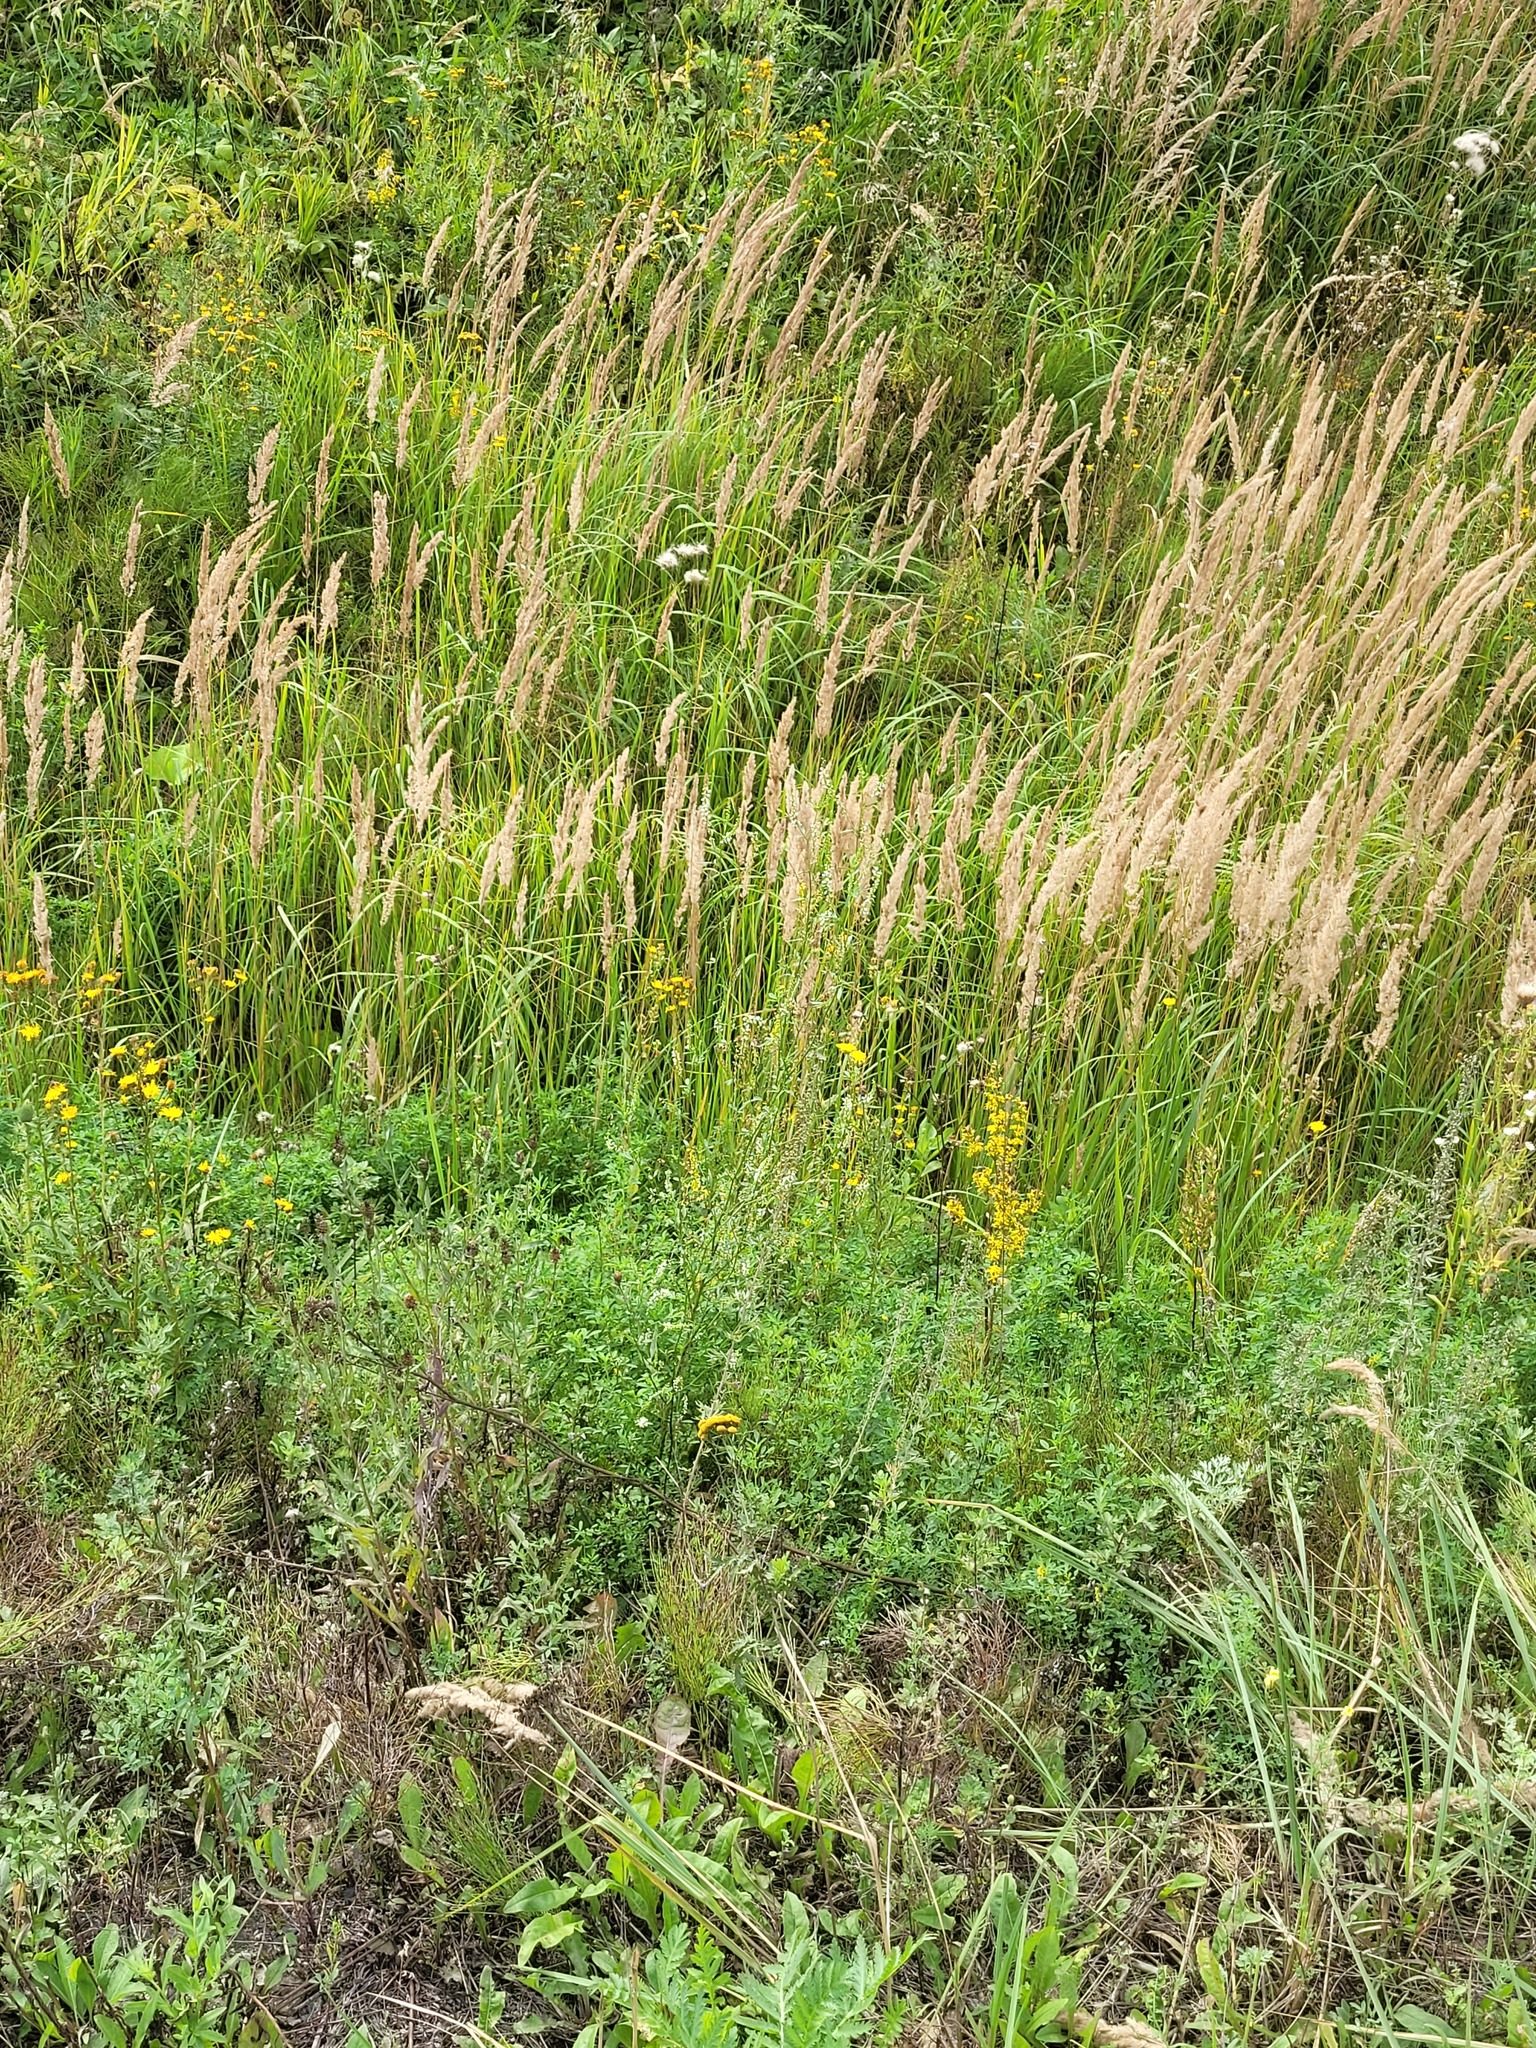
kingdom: Plantae
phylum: Tracheophyta
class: Liliopsida
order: Poales
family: Poaceae
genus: Calamagrostis
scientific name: Calamagrostis epigejos
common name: Wood small-reed
